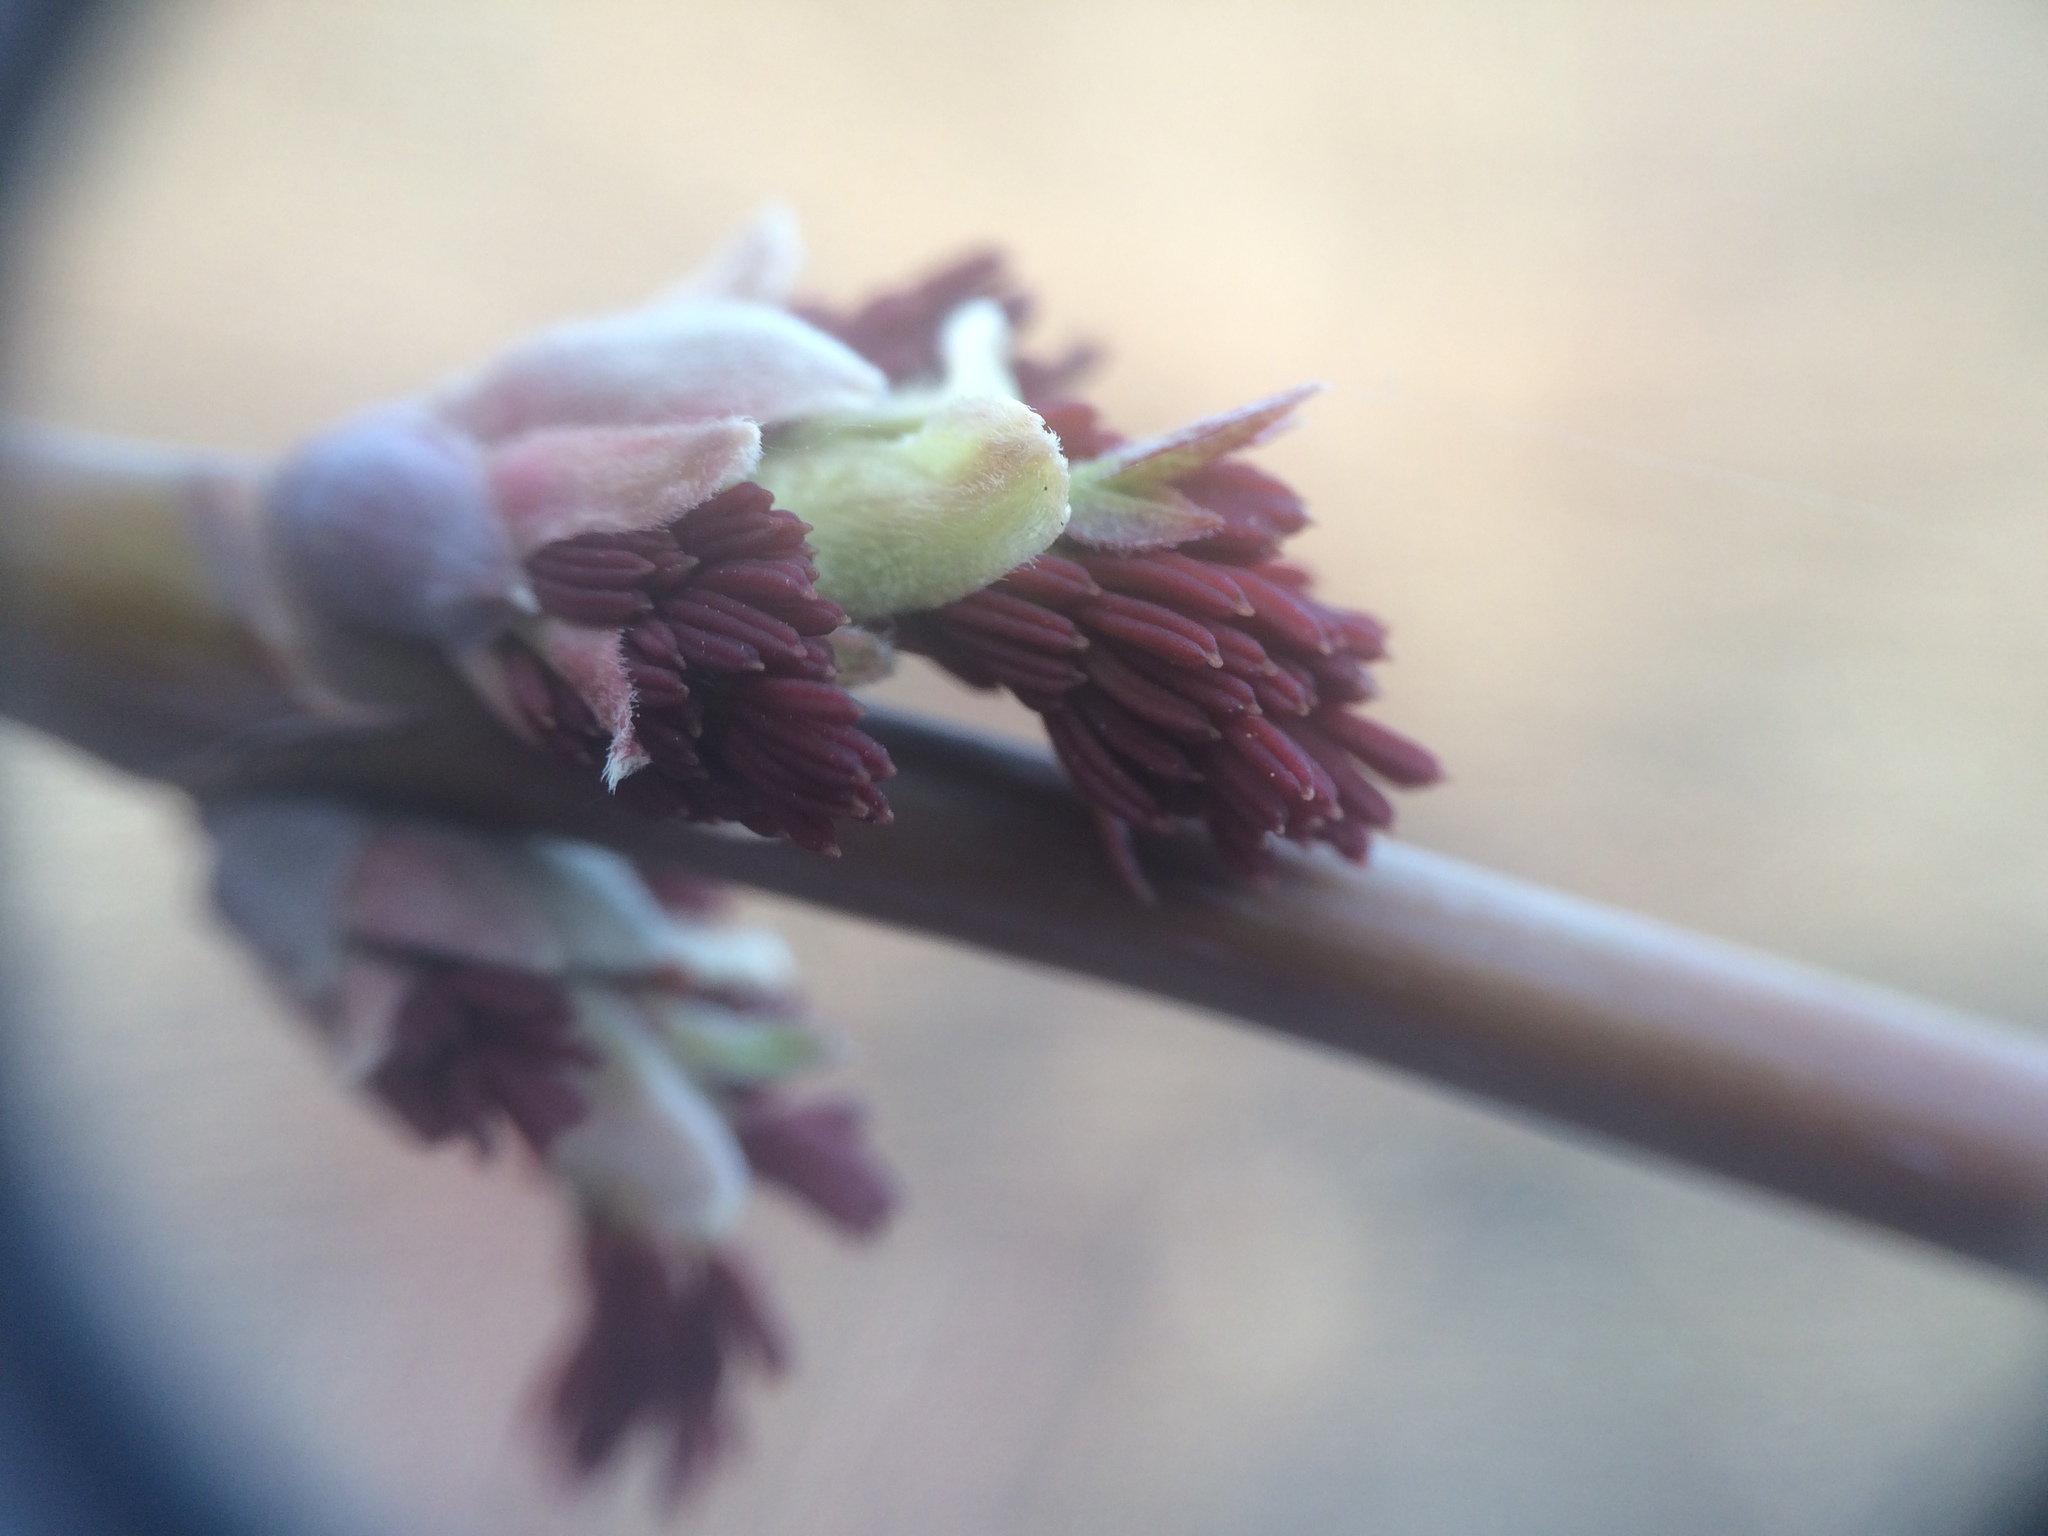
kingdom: Plantae
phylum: Tracheophyta
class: Magnoliopsida
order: Sapindales
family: Sapindaceae
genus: Acer
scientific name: Acer negundo
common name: Ashleaf maple
